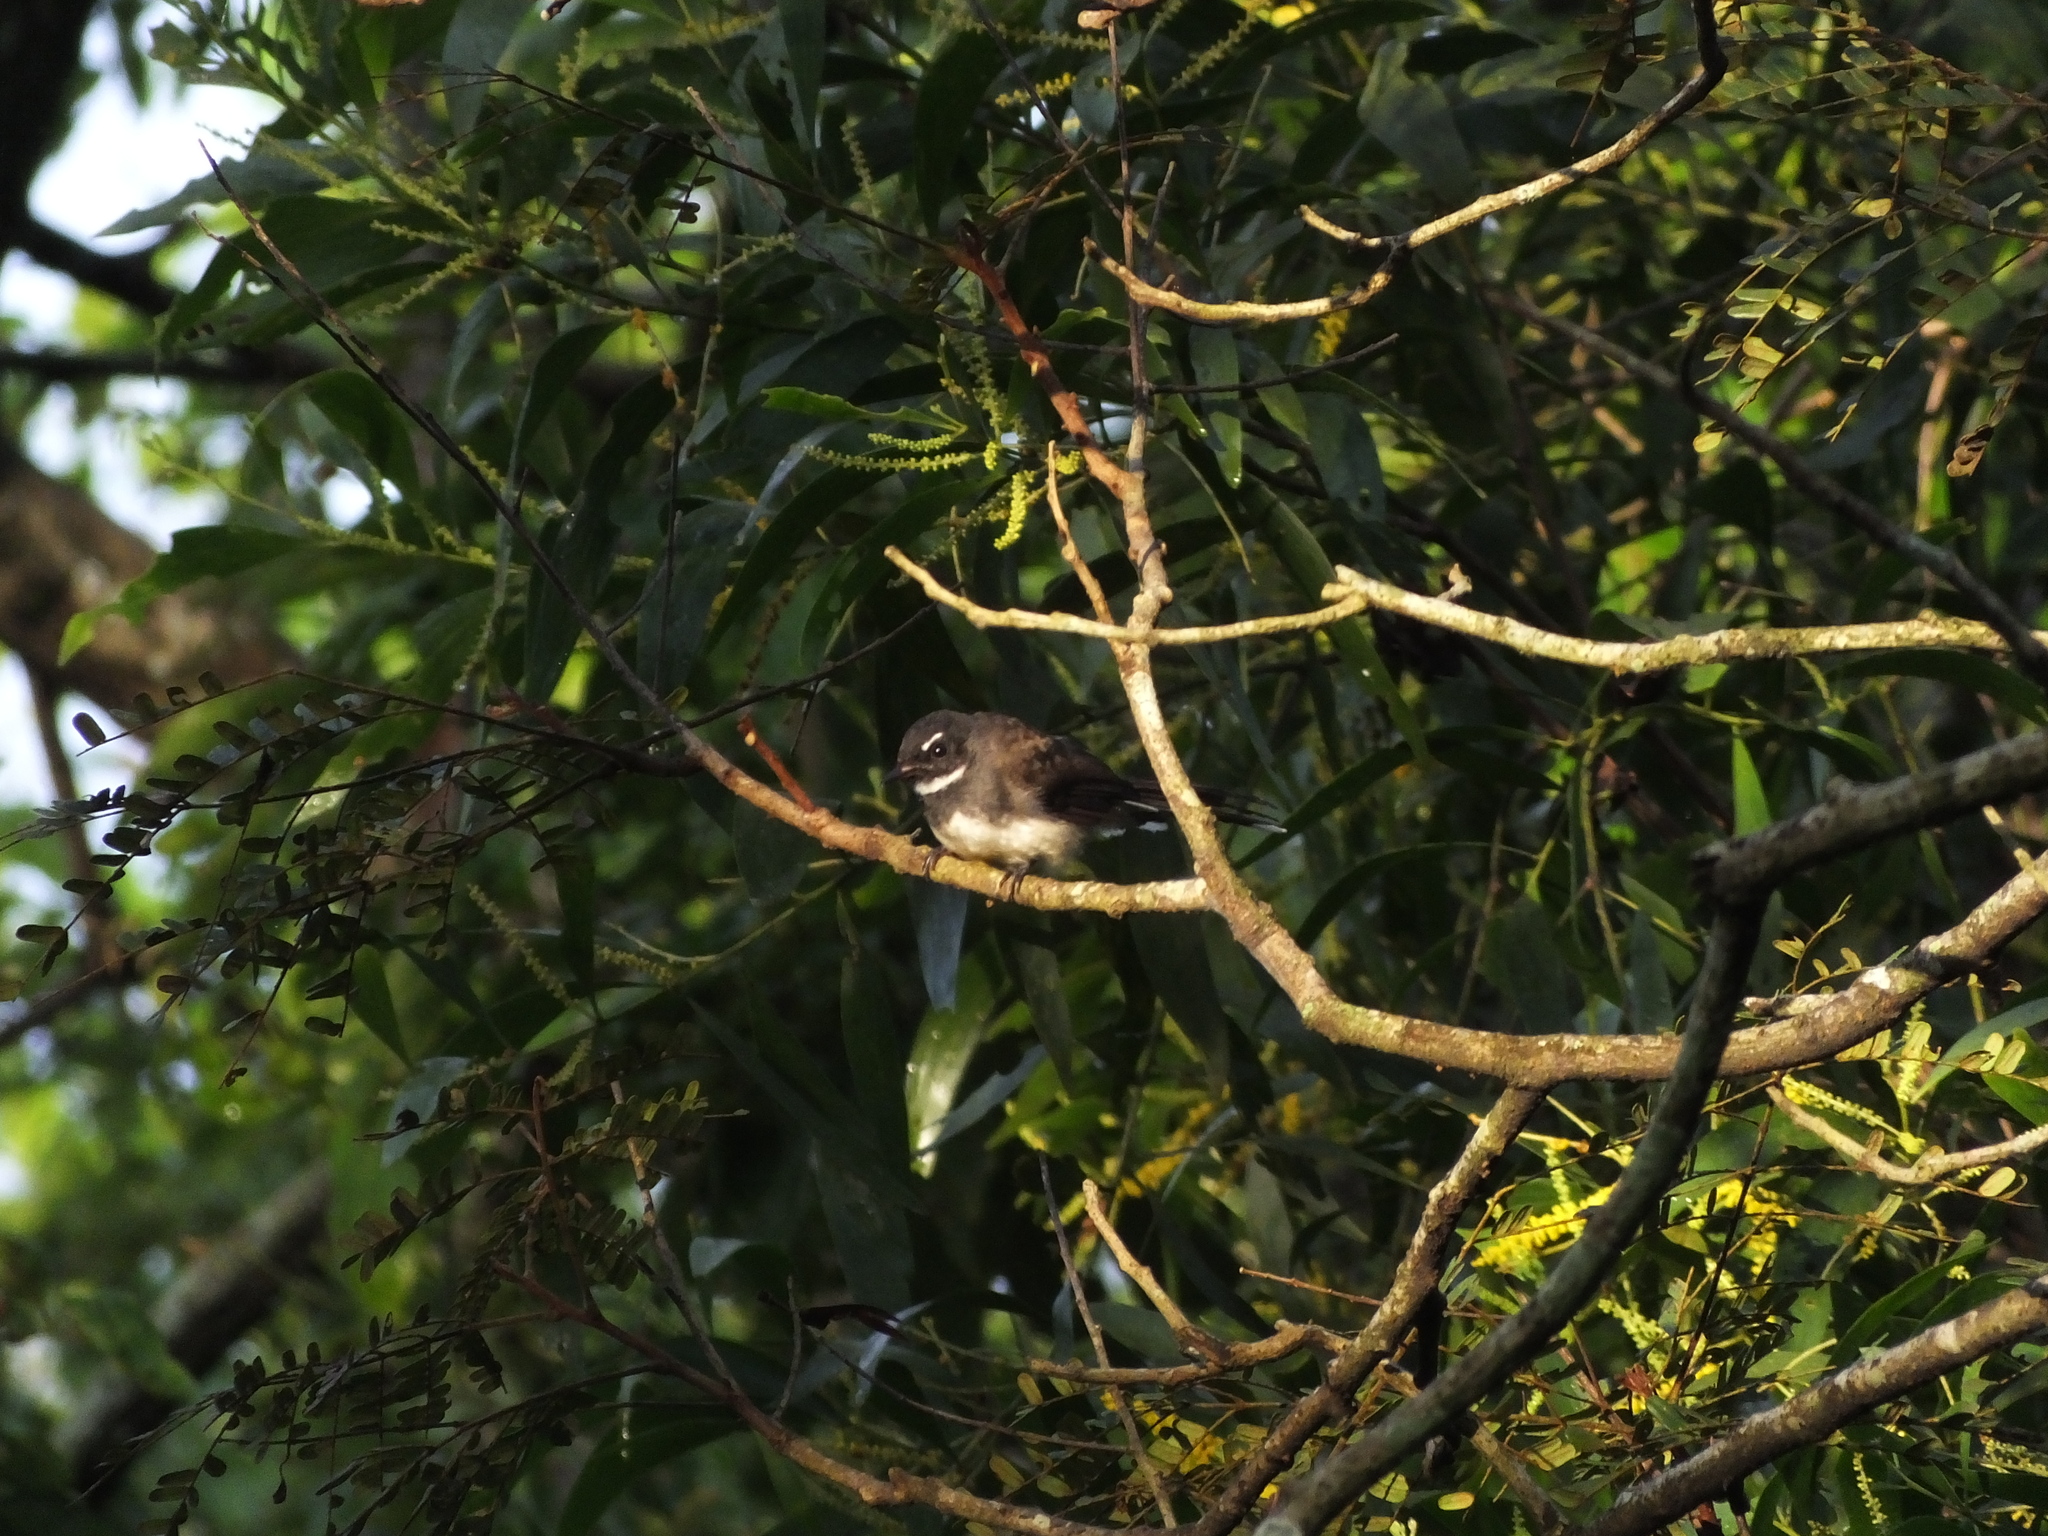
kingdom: Animalia
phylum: Chordata
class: Aves
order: Passeriformes
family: Rhipiduridae
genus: Rhipidura
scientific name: Rhipidura javanica
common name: Pied fantail
